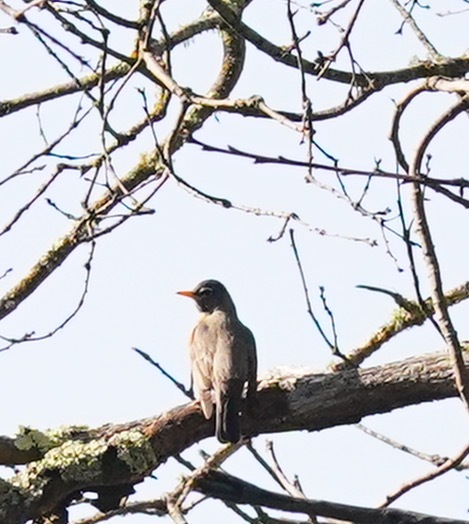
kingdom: Animalia
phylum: Chordata
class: Aves
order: Passeriformes
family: Turdidae
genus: Turdus
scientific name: Turdus migratorius
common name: American robin
